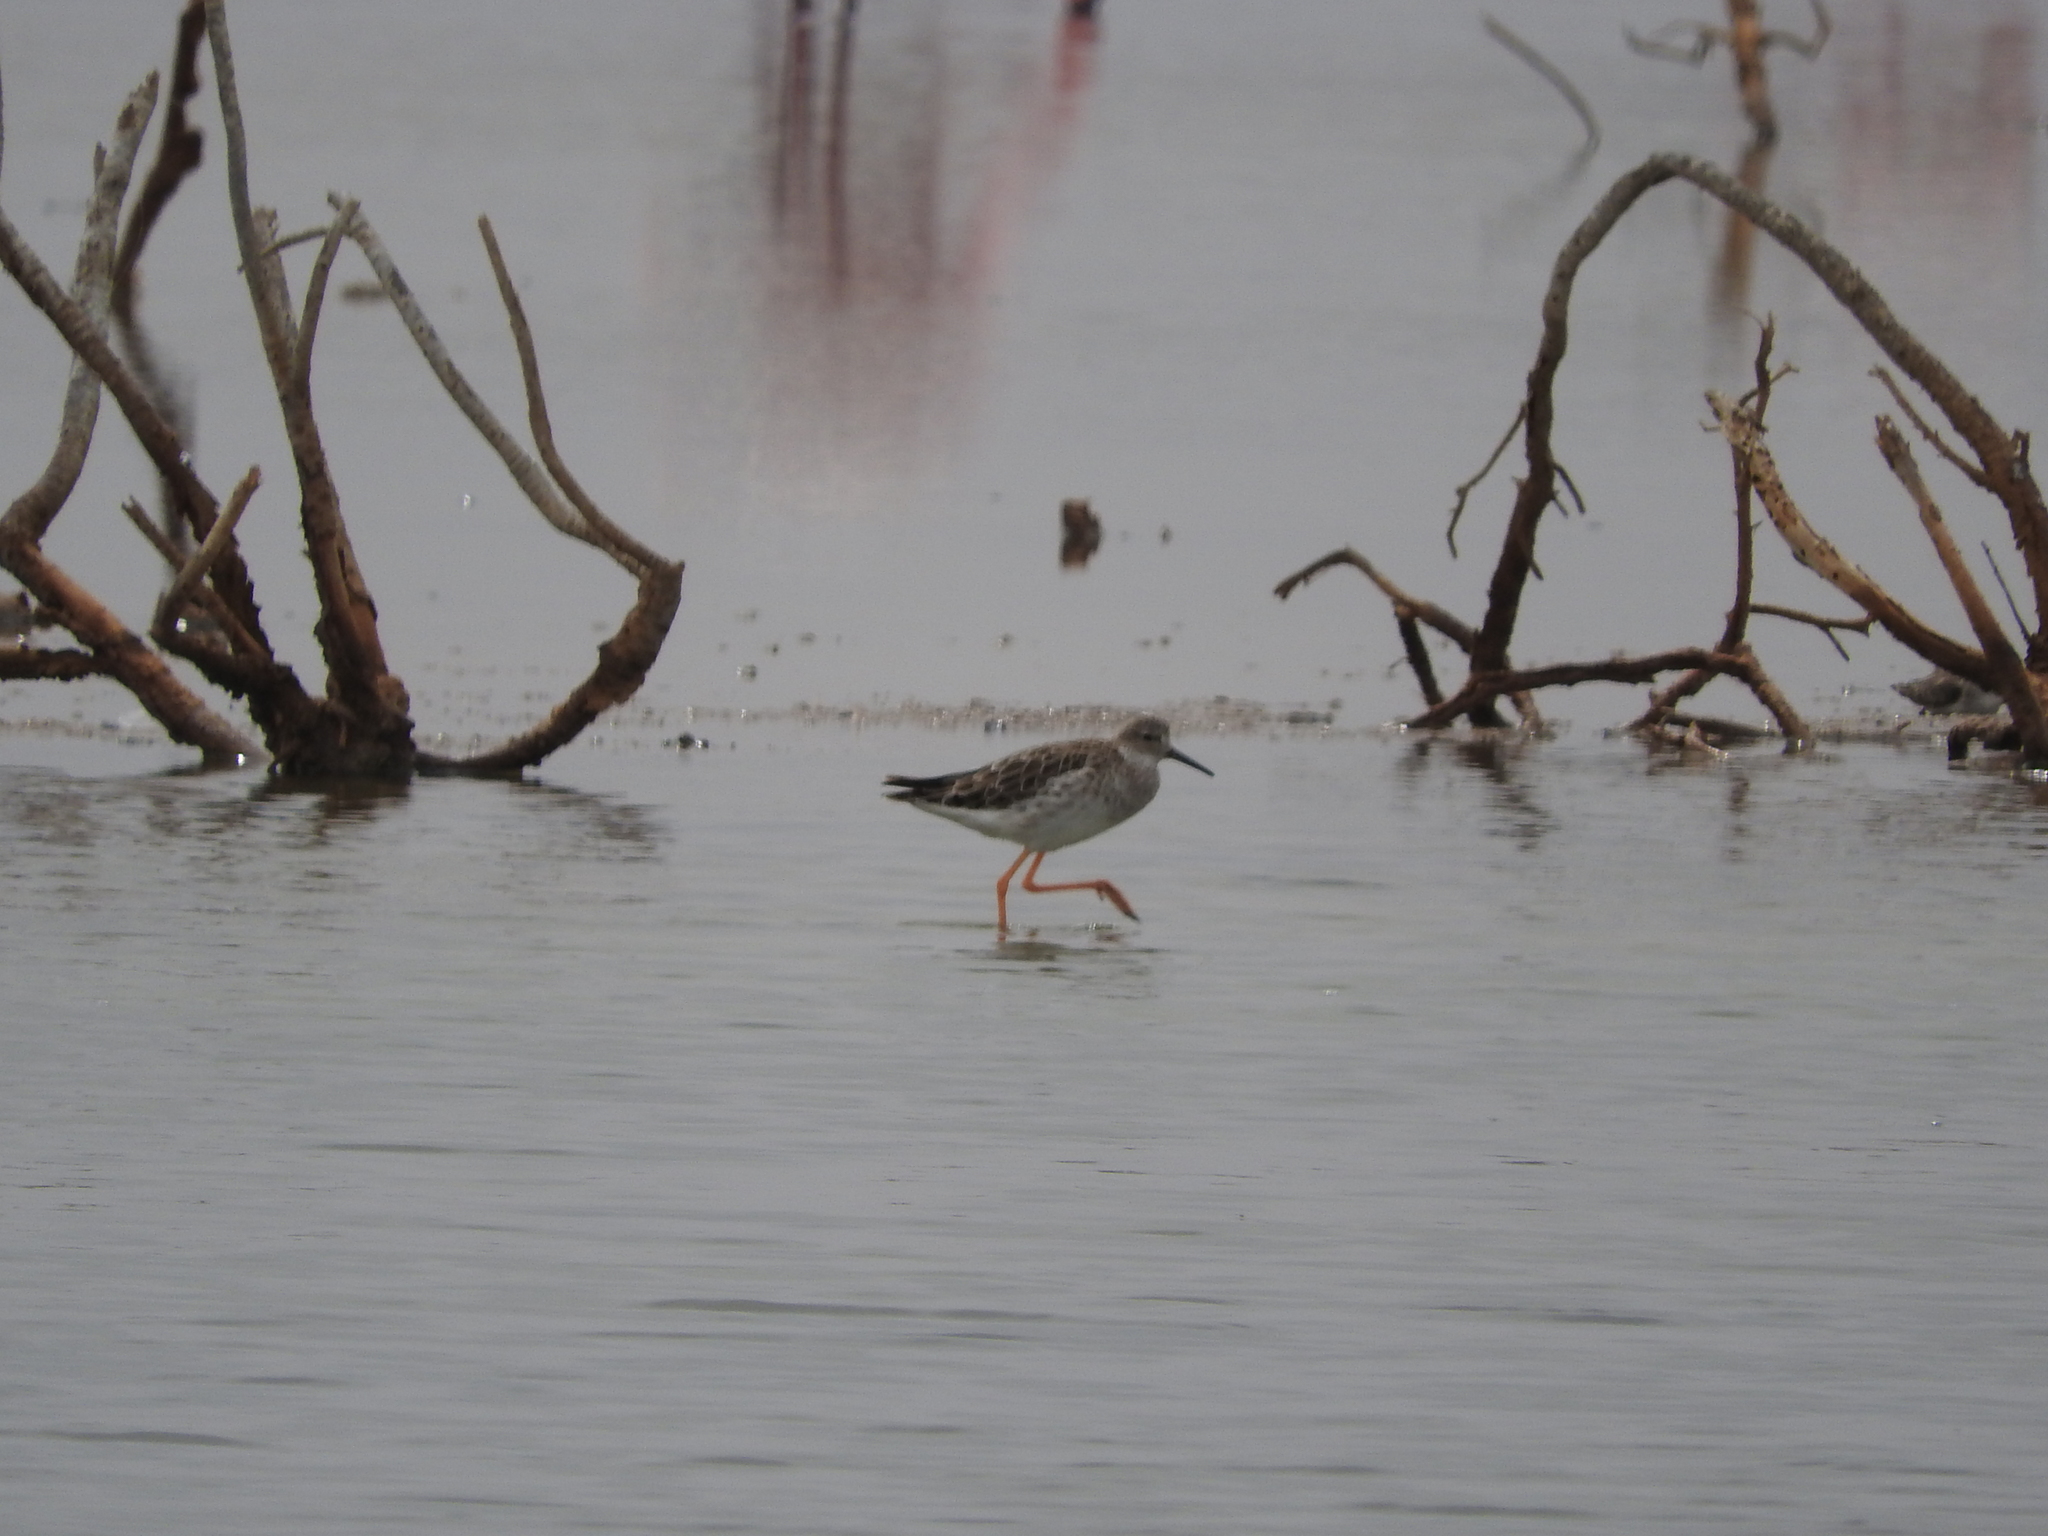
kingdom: Animalia
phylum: Chordata
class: Aves
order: Charadriiformes
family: Scolopacidae
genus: Calidris
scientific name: Calidris pugnax
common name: Ruff
